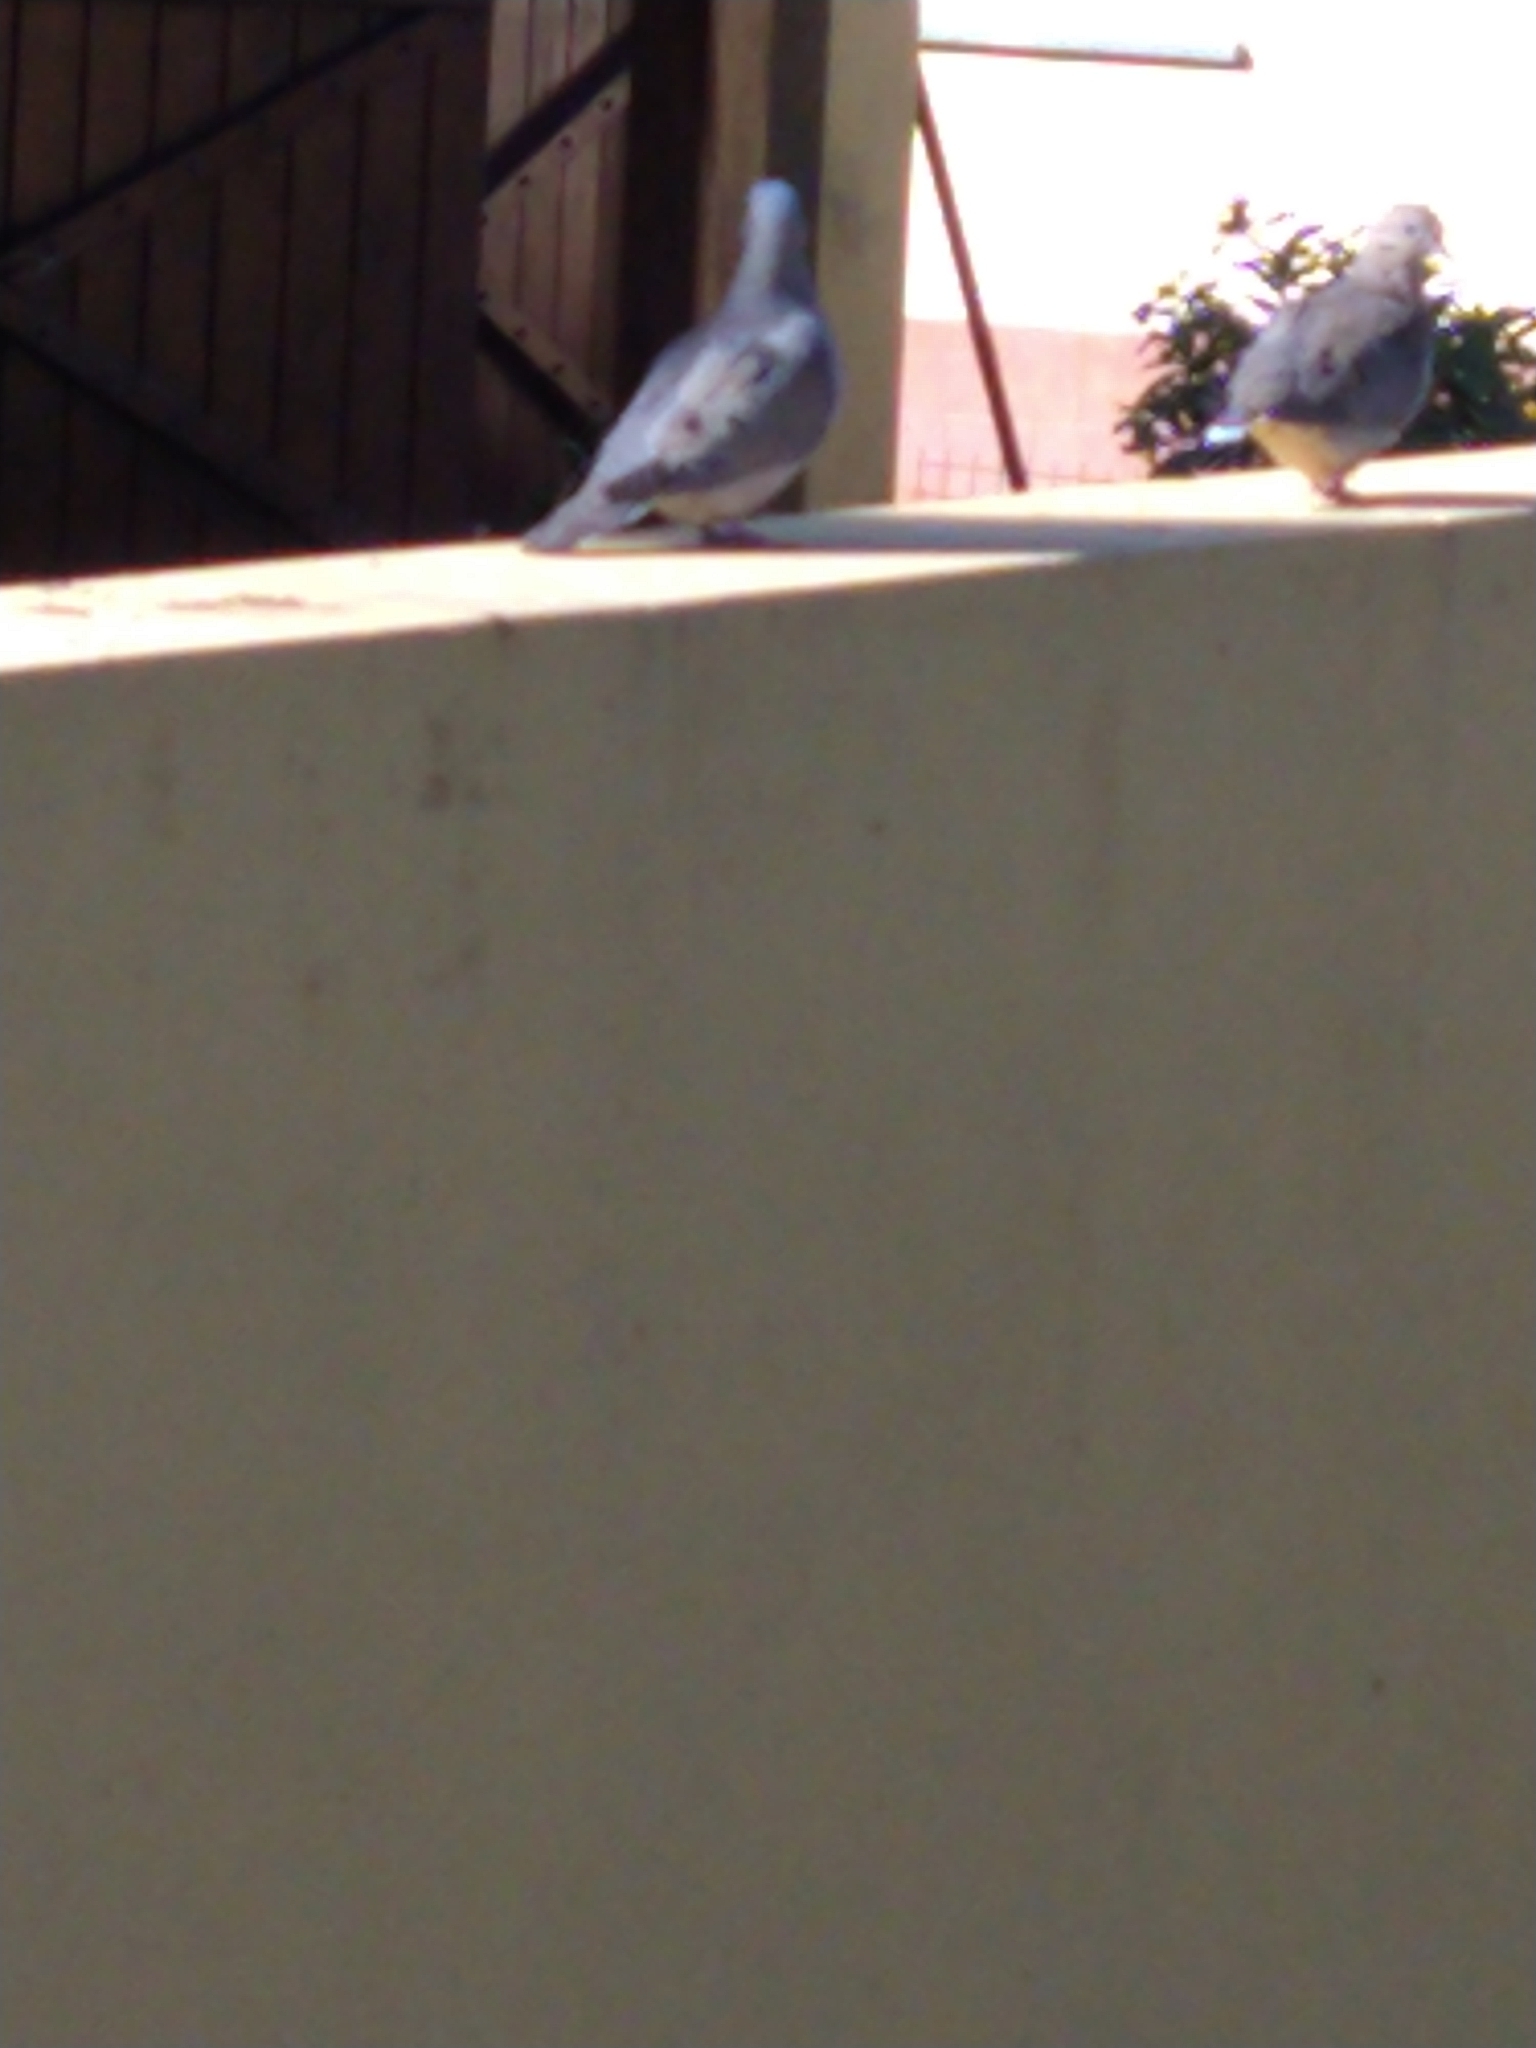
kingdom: Animalia
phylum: Chordata
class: Aves
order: Columbiformes
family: Columbidae
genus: Zenaida
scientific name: Zenaida auriculata
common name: Eared dove
